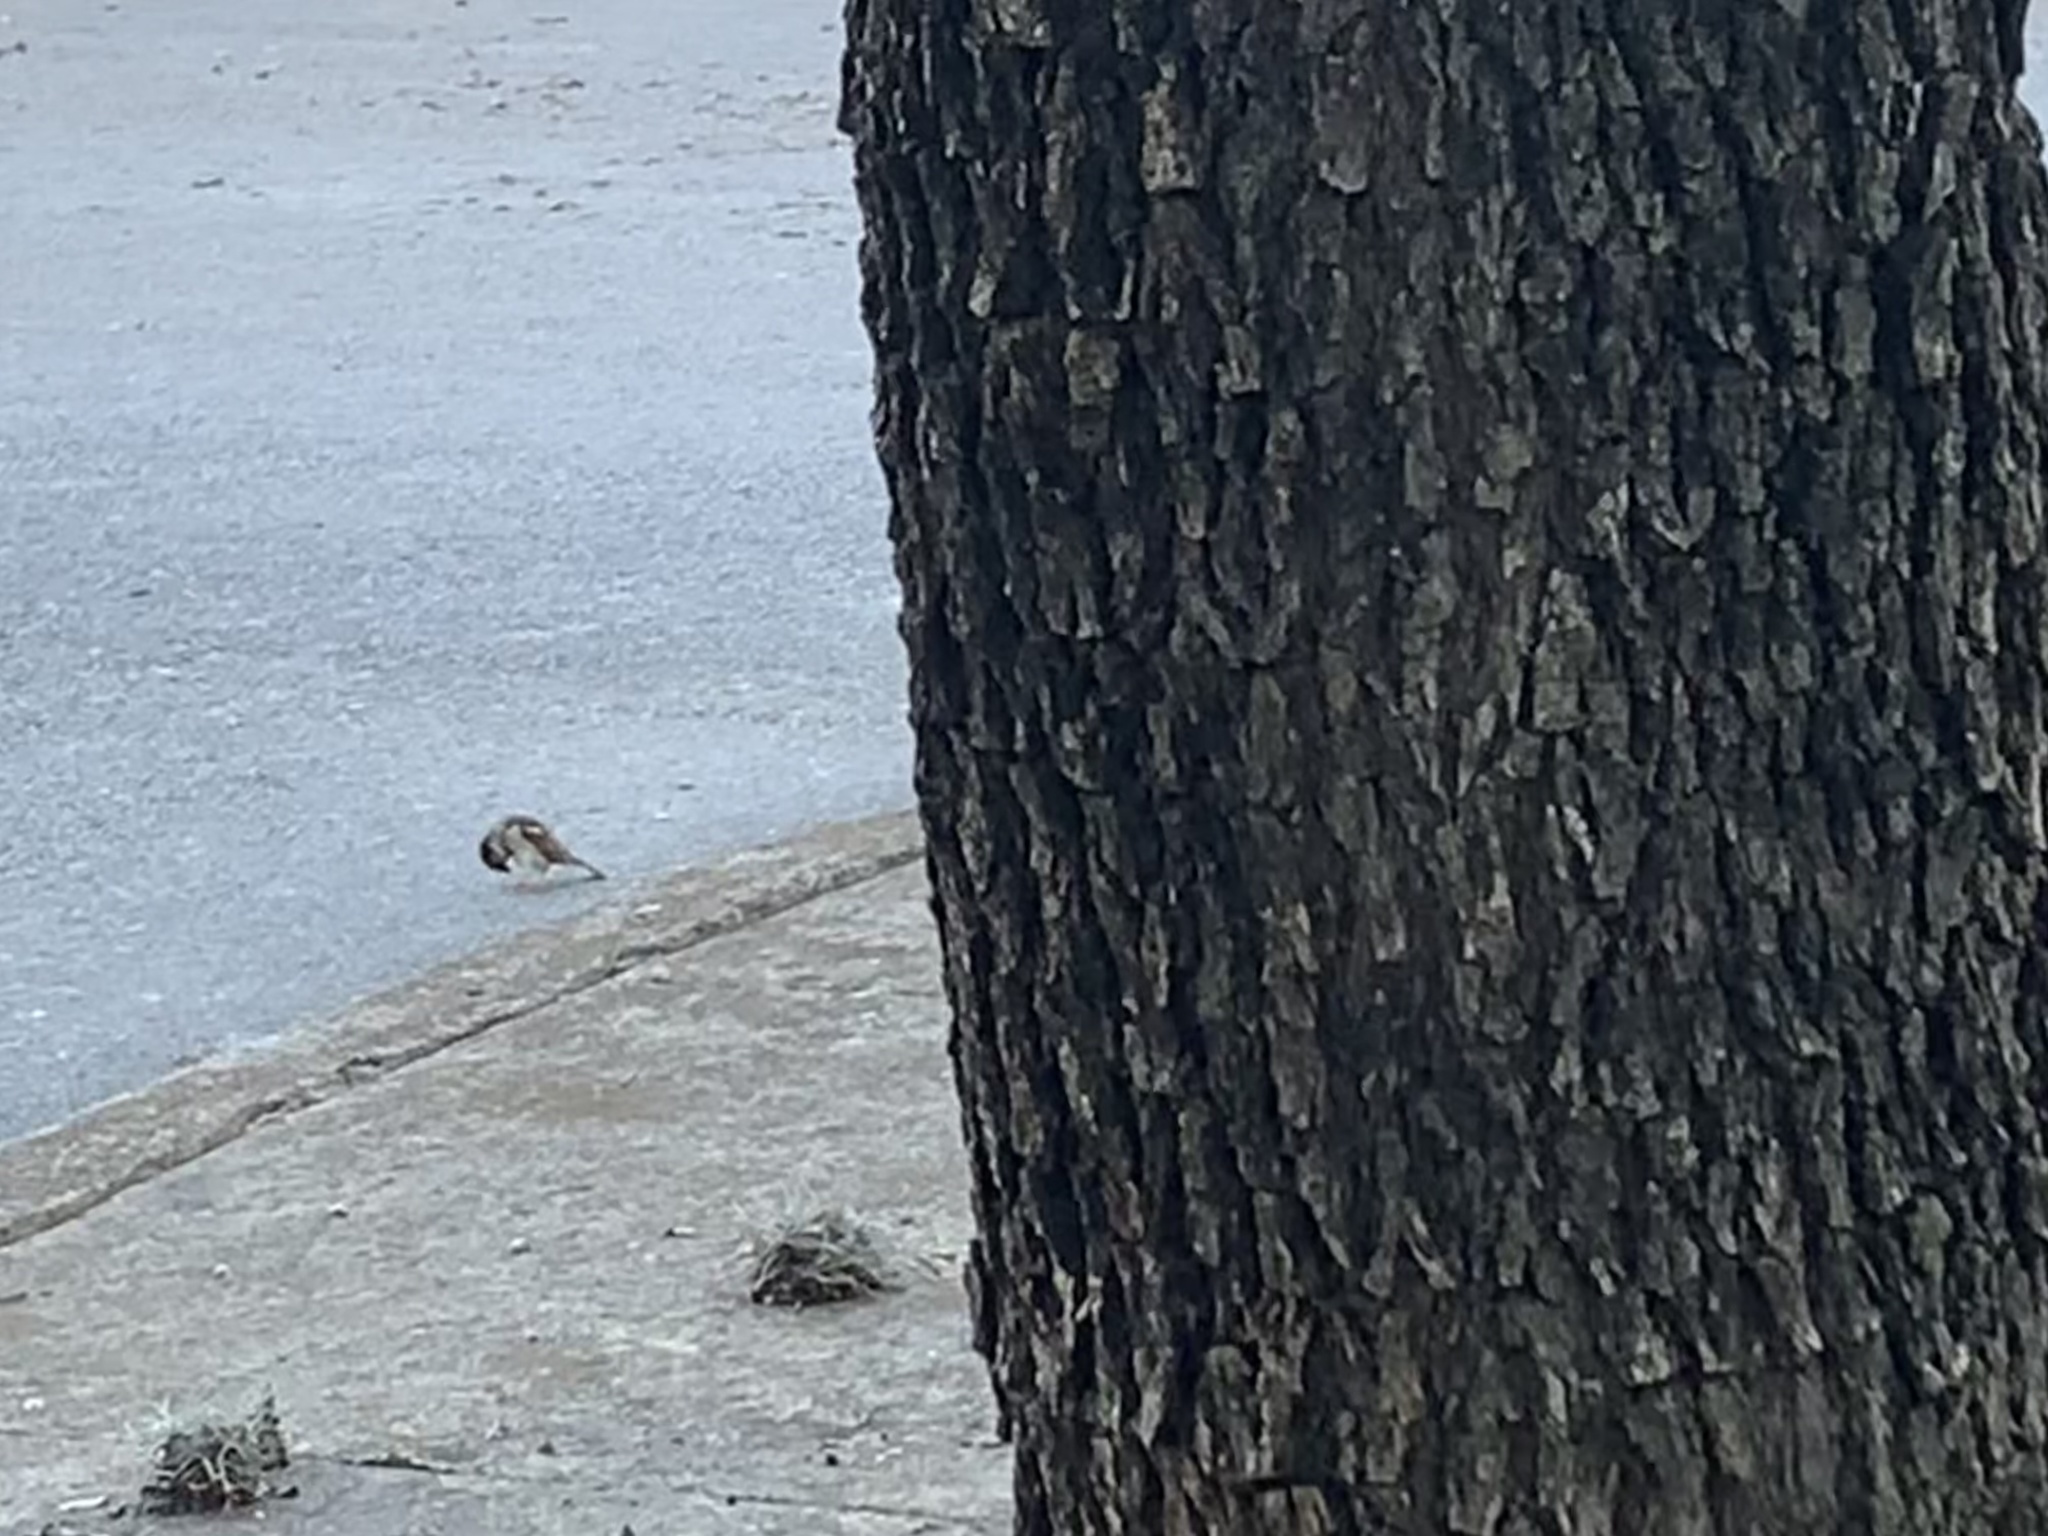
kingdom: Animalia
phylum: Chordata
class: Aves
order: Passeriformes
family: Passeridae
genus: Passer
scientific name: Passer domesticus
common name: House sparrow
